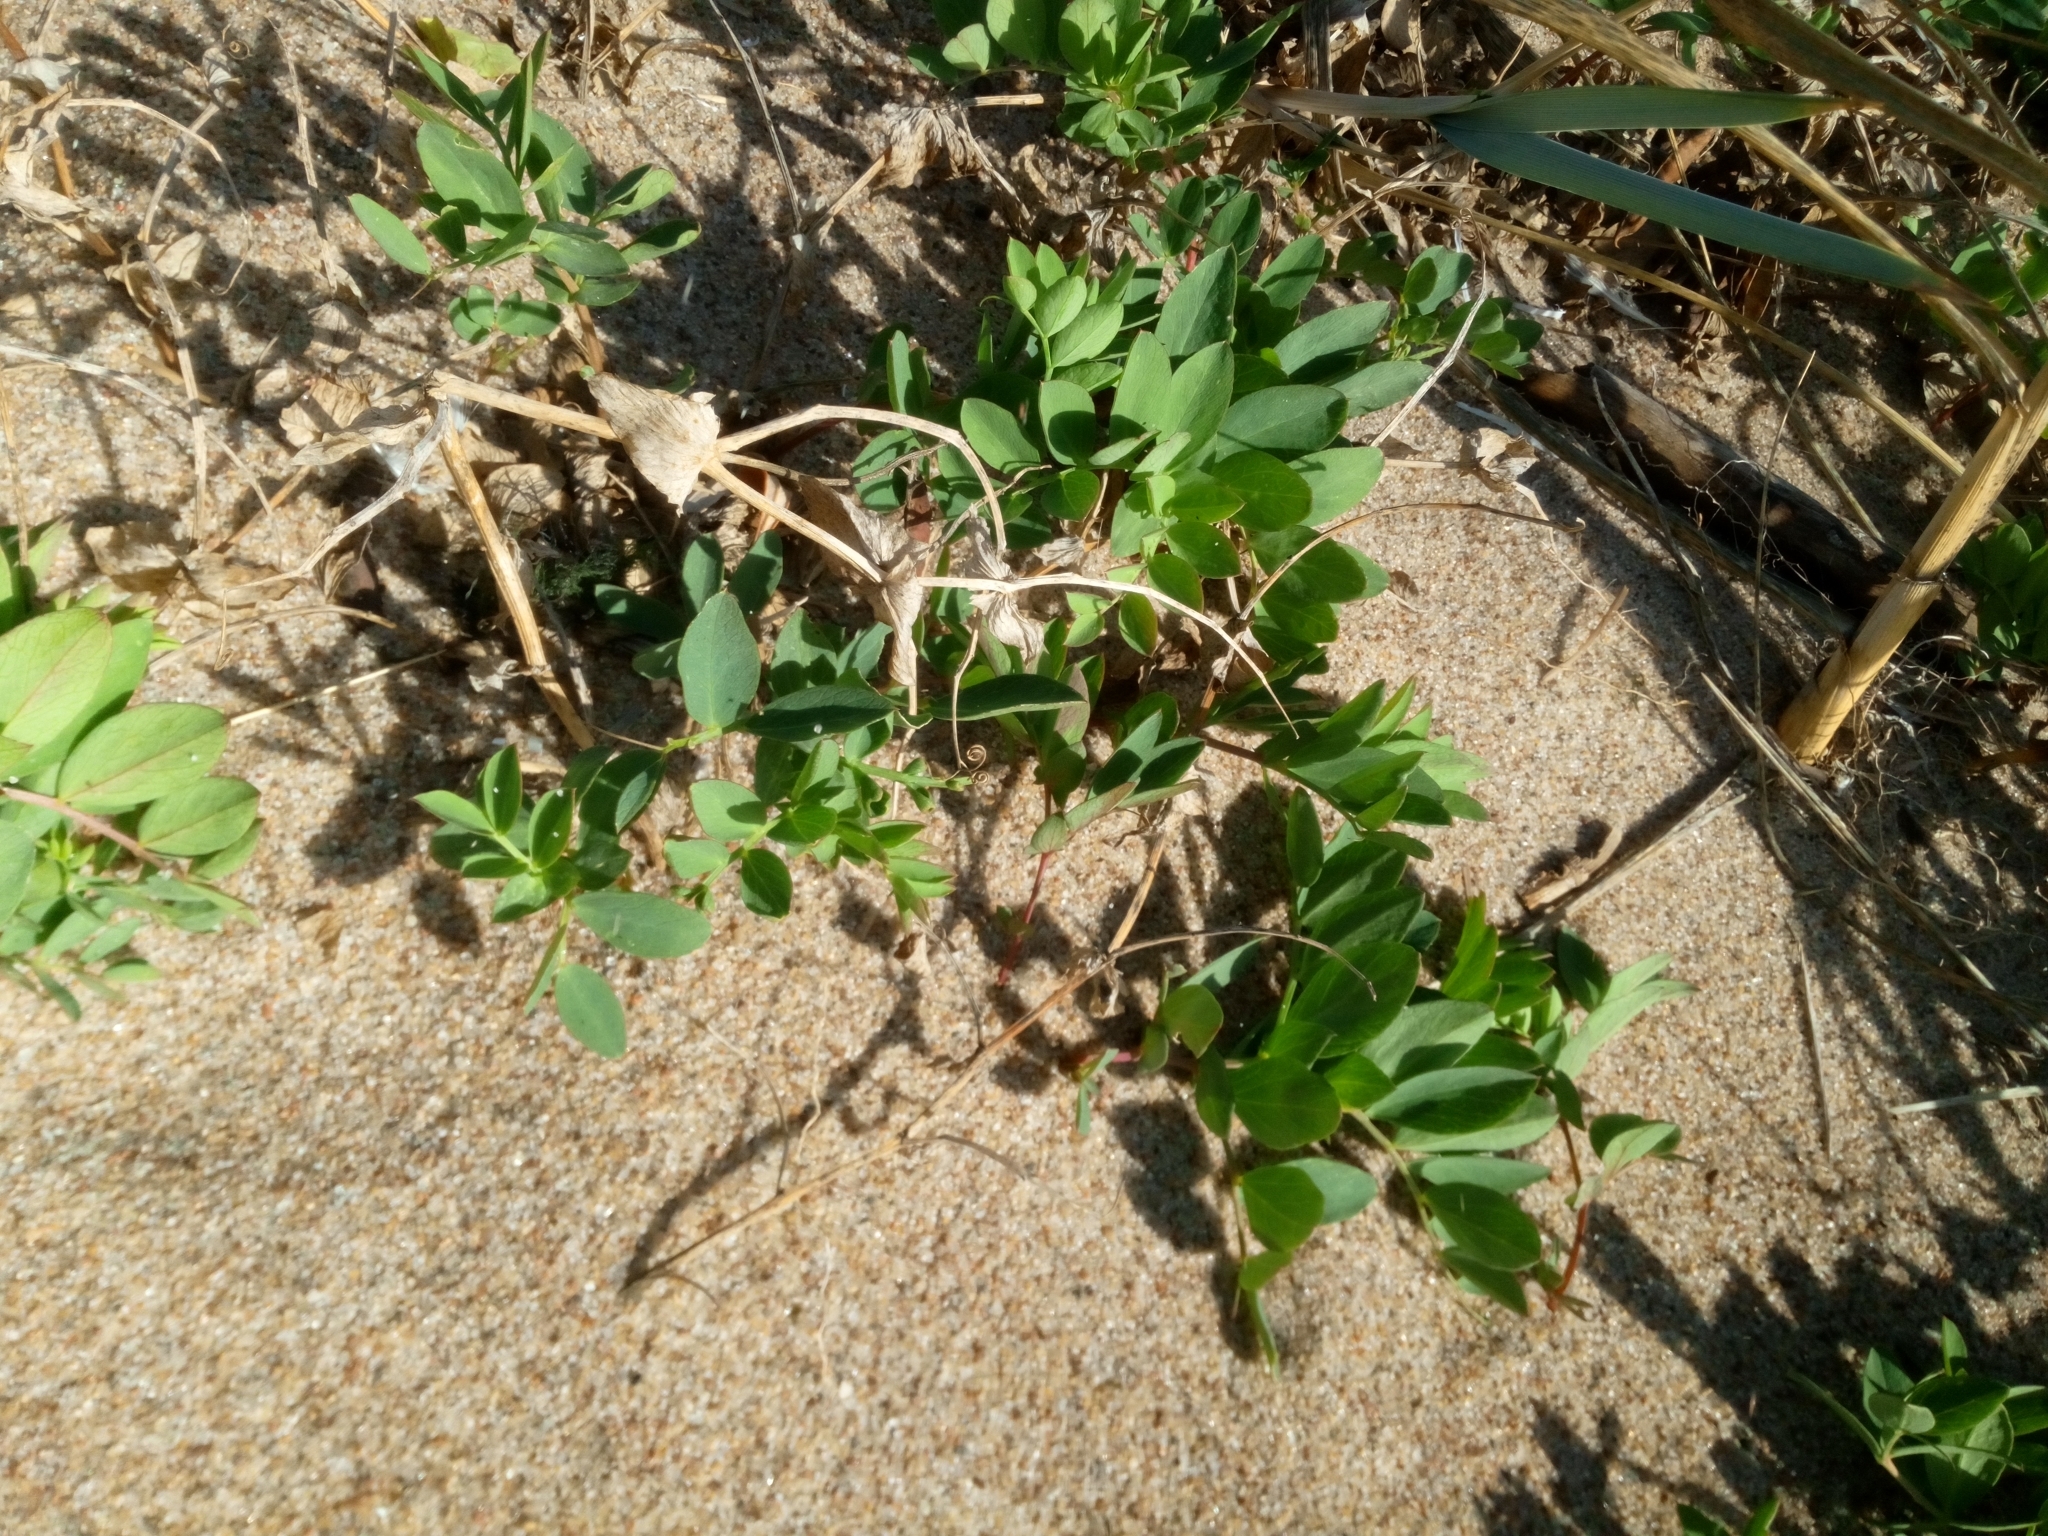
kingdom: Plantae
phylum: Tracheophyta
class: Magnoliopsida
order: Fabales
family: Fabaceae
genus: Lathyrus
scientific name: Lathyrus japonicus
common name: Sea pea
